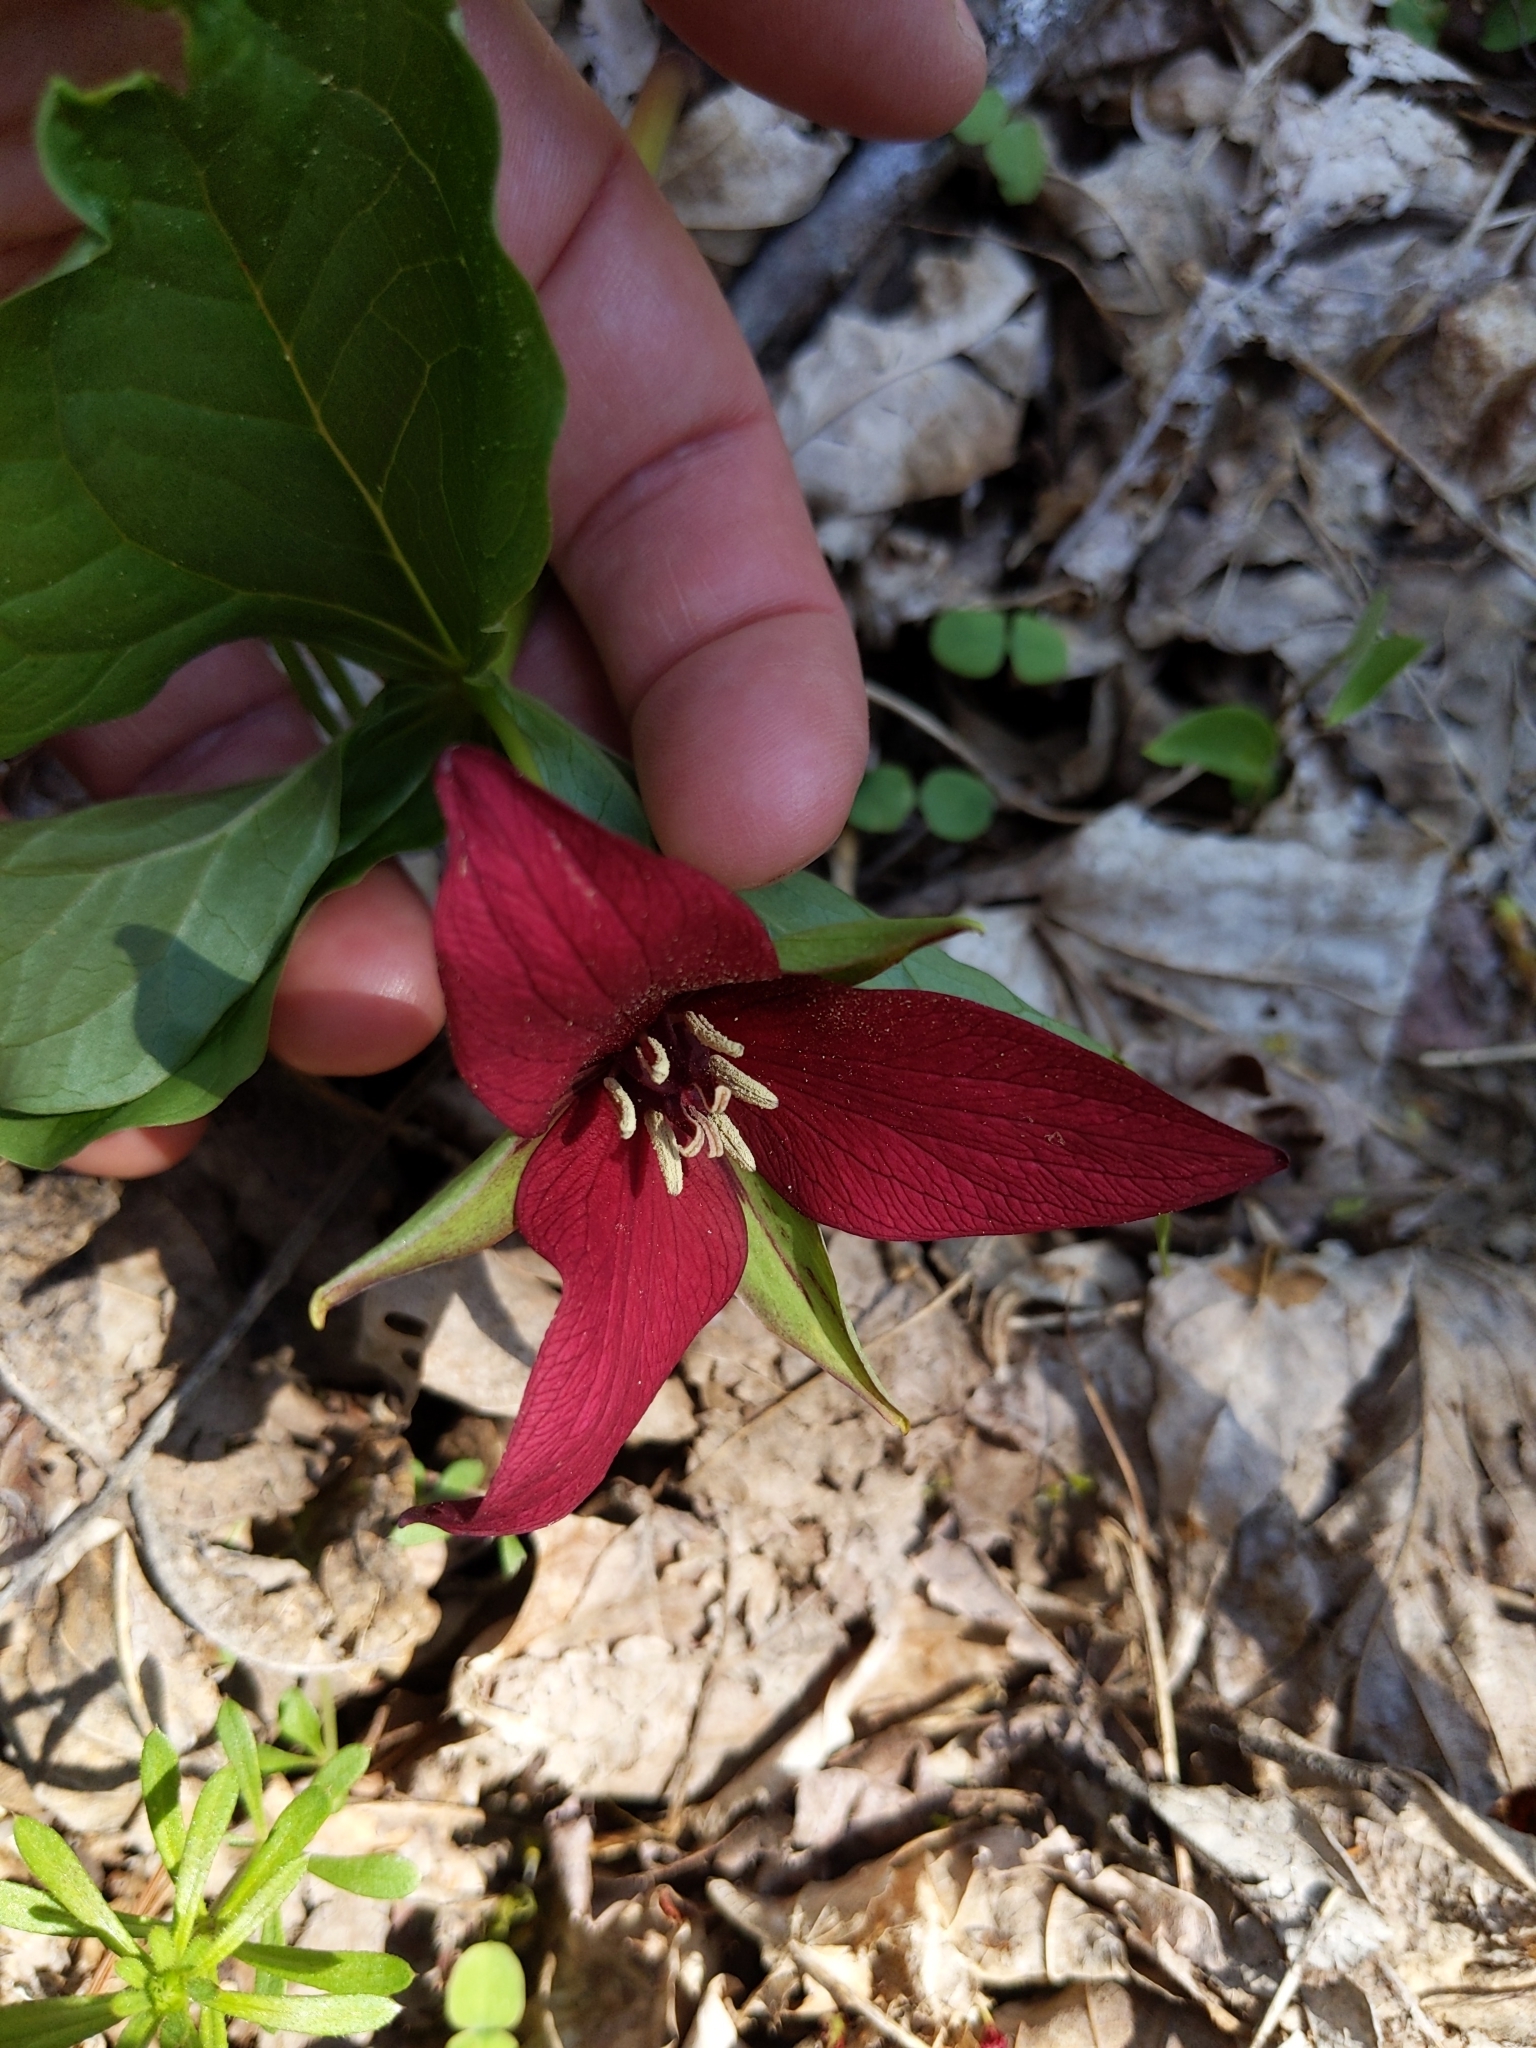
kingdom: Plantae
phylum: Tracheophyta
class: Liliopsida
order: Liliales
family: Melanthiaceae
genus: Trillium
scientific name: Trillium erectum
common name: Purple trillium
